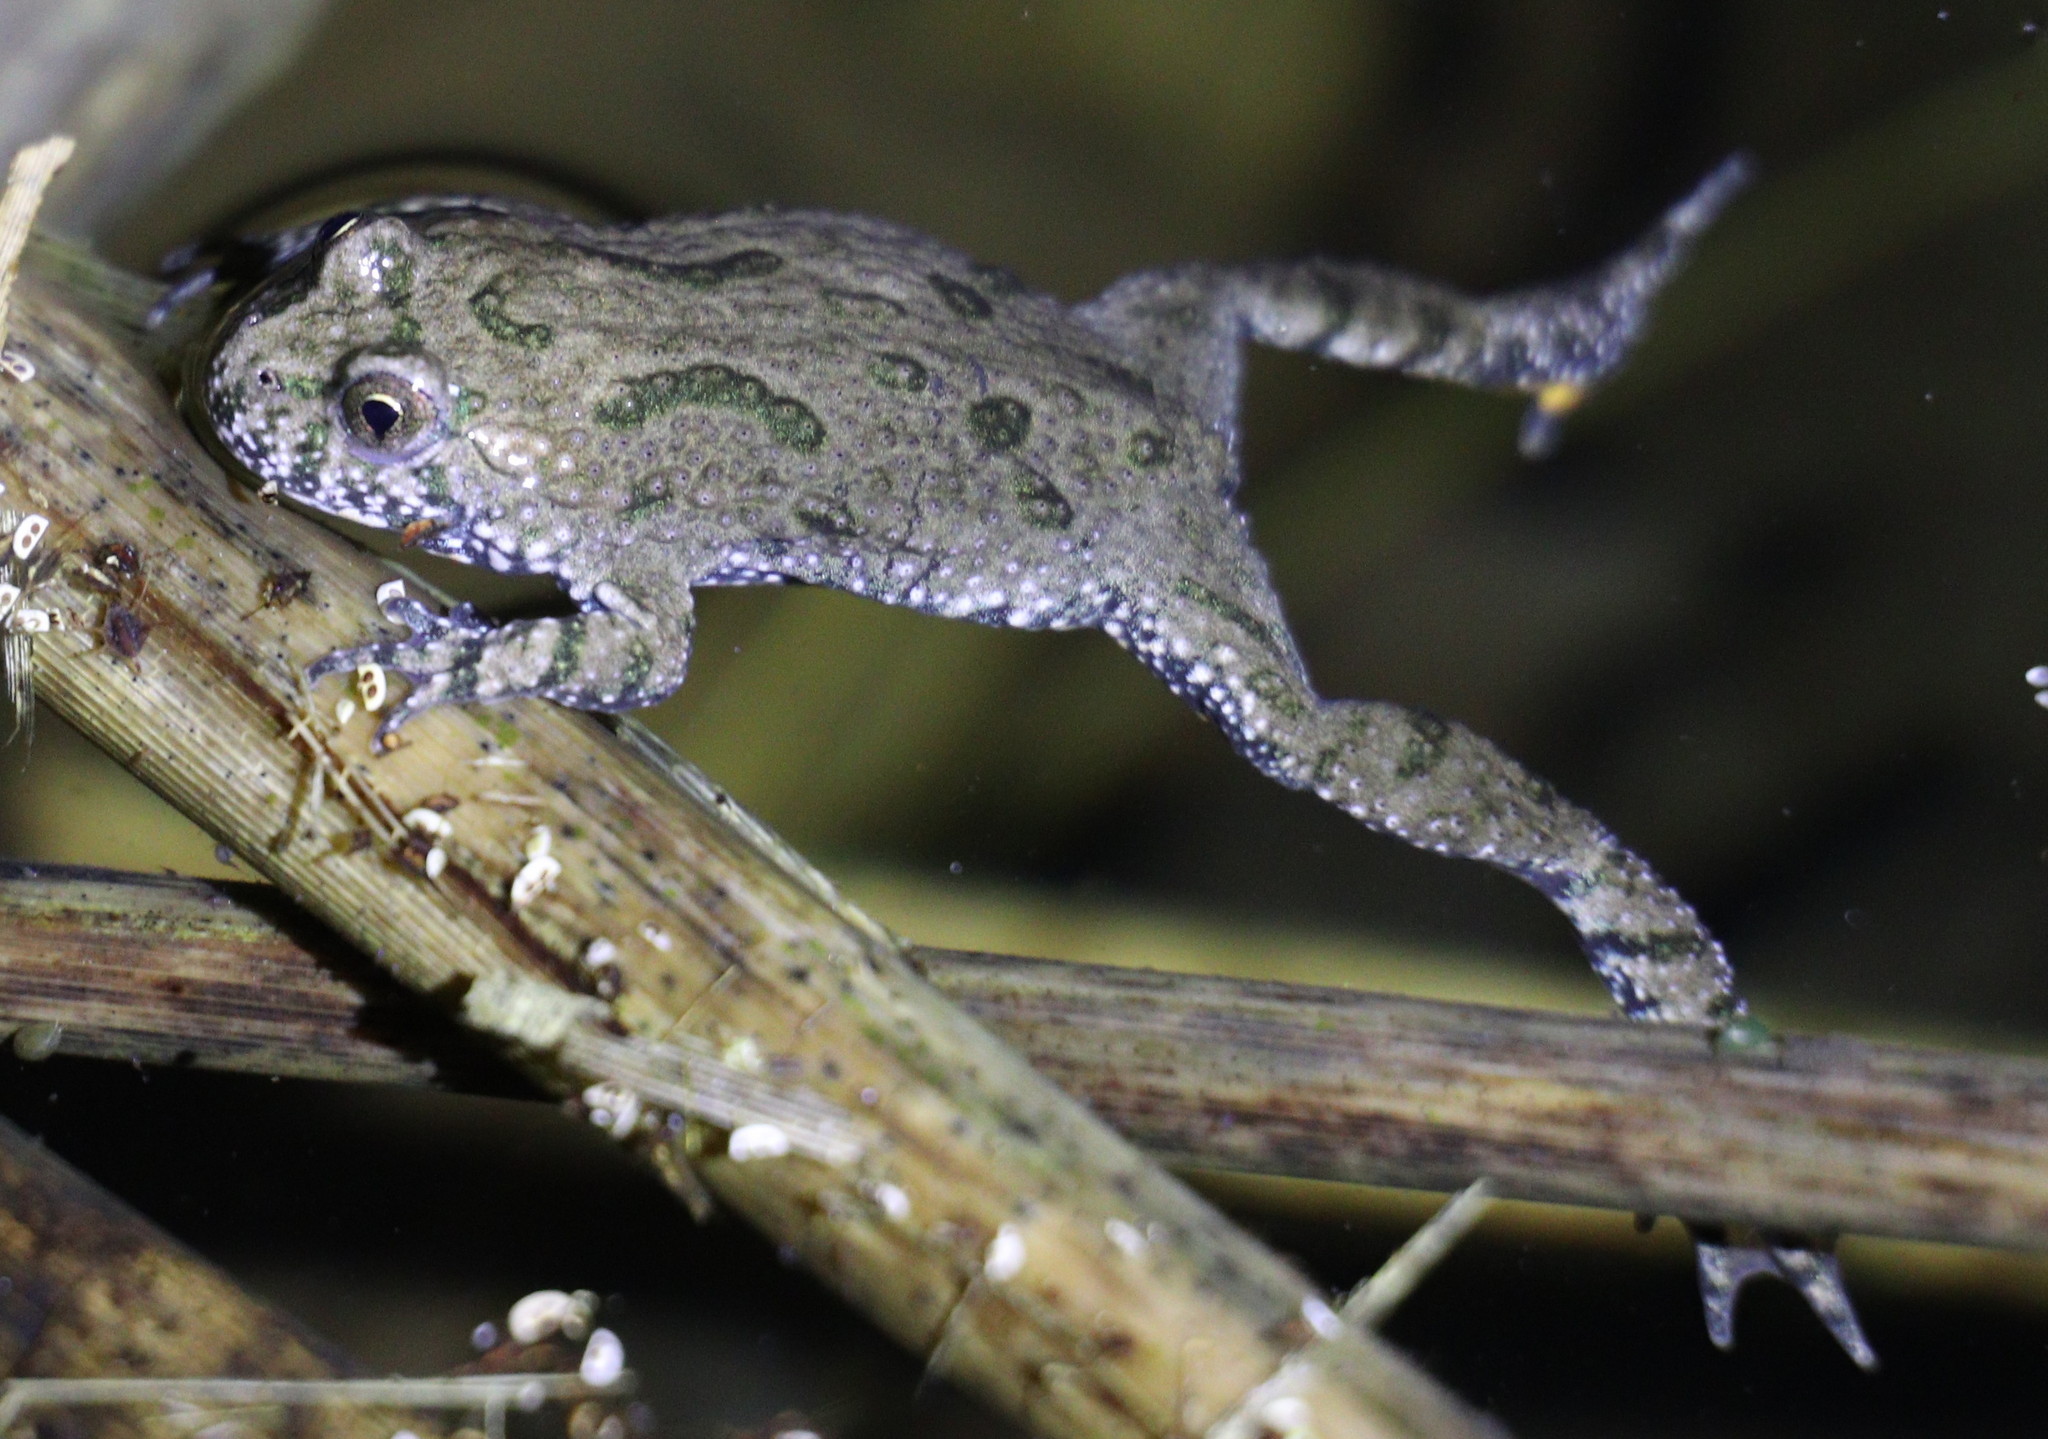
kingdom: Animalia
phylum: Chordata
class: Amphibia
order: Anura
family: Bombinatoridae
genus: Bombina
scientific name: Bombina bombina
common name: Fire-bellied toad
